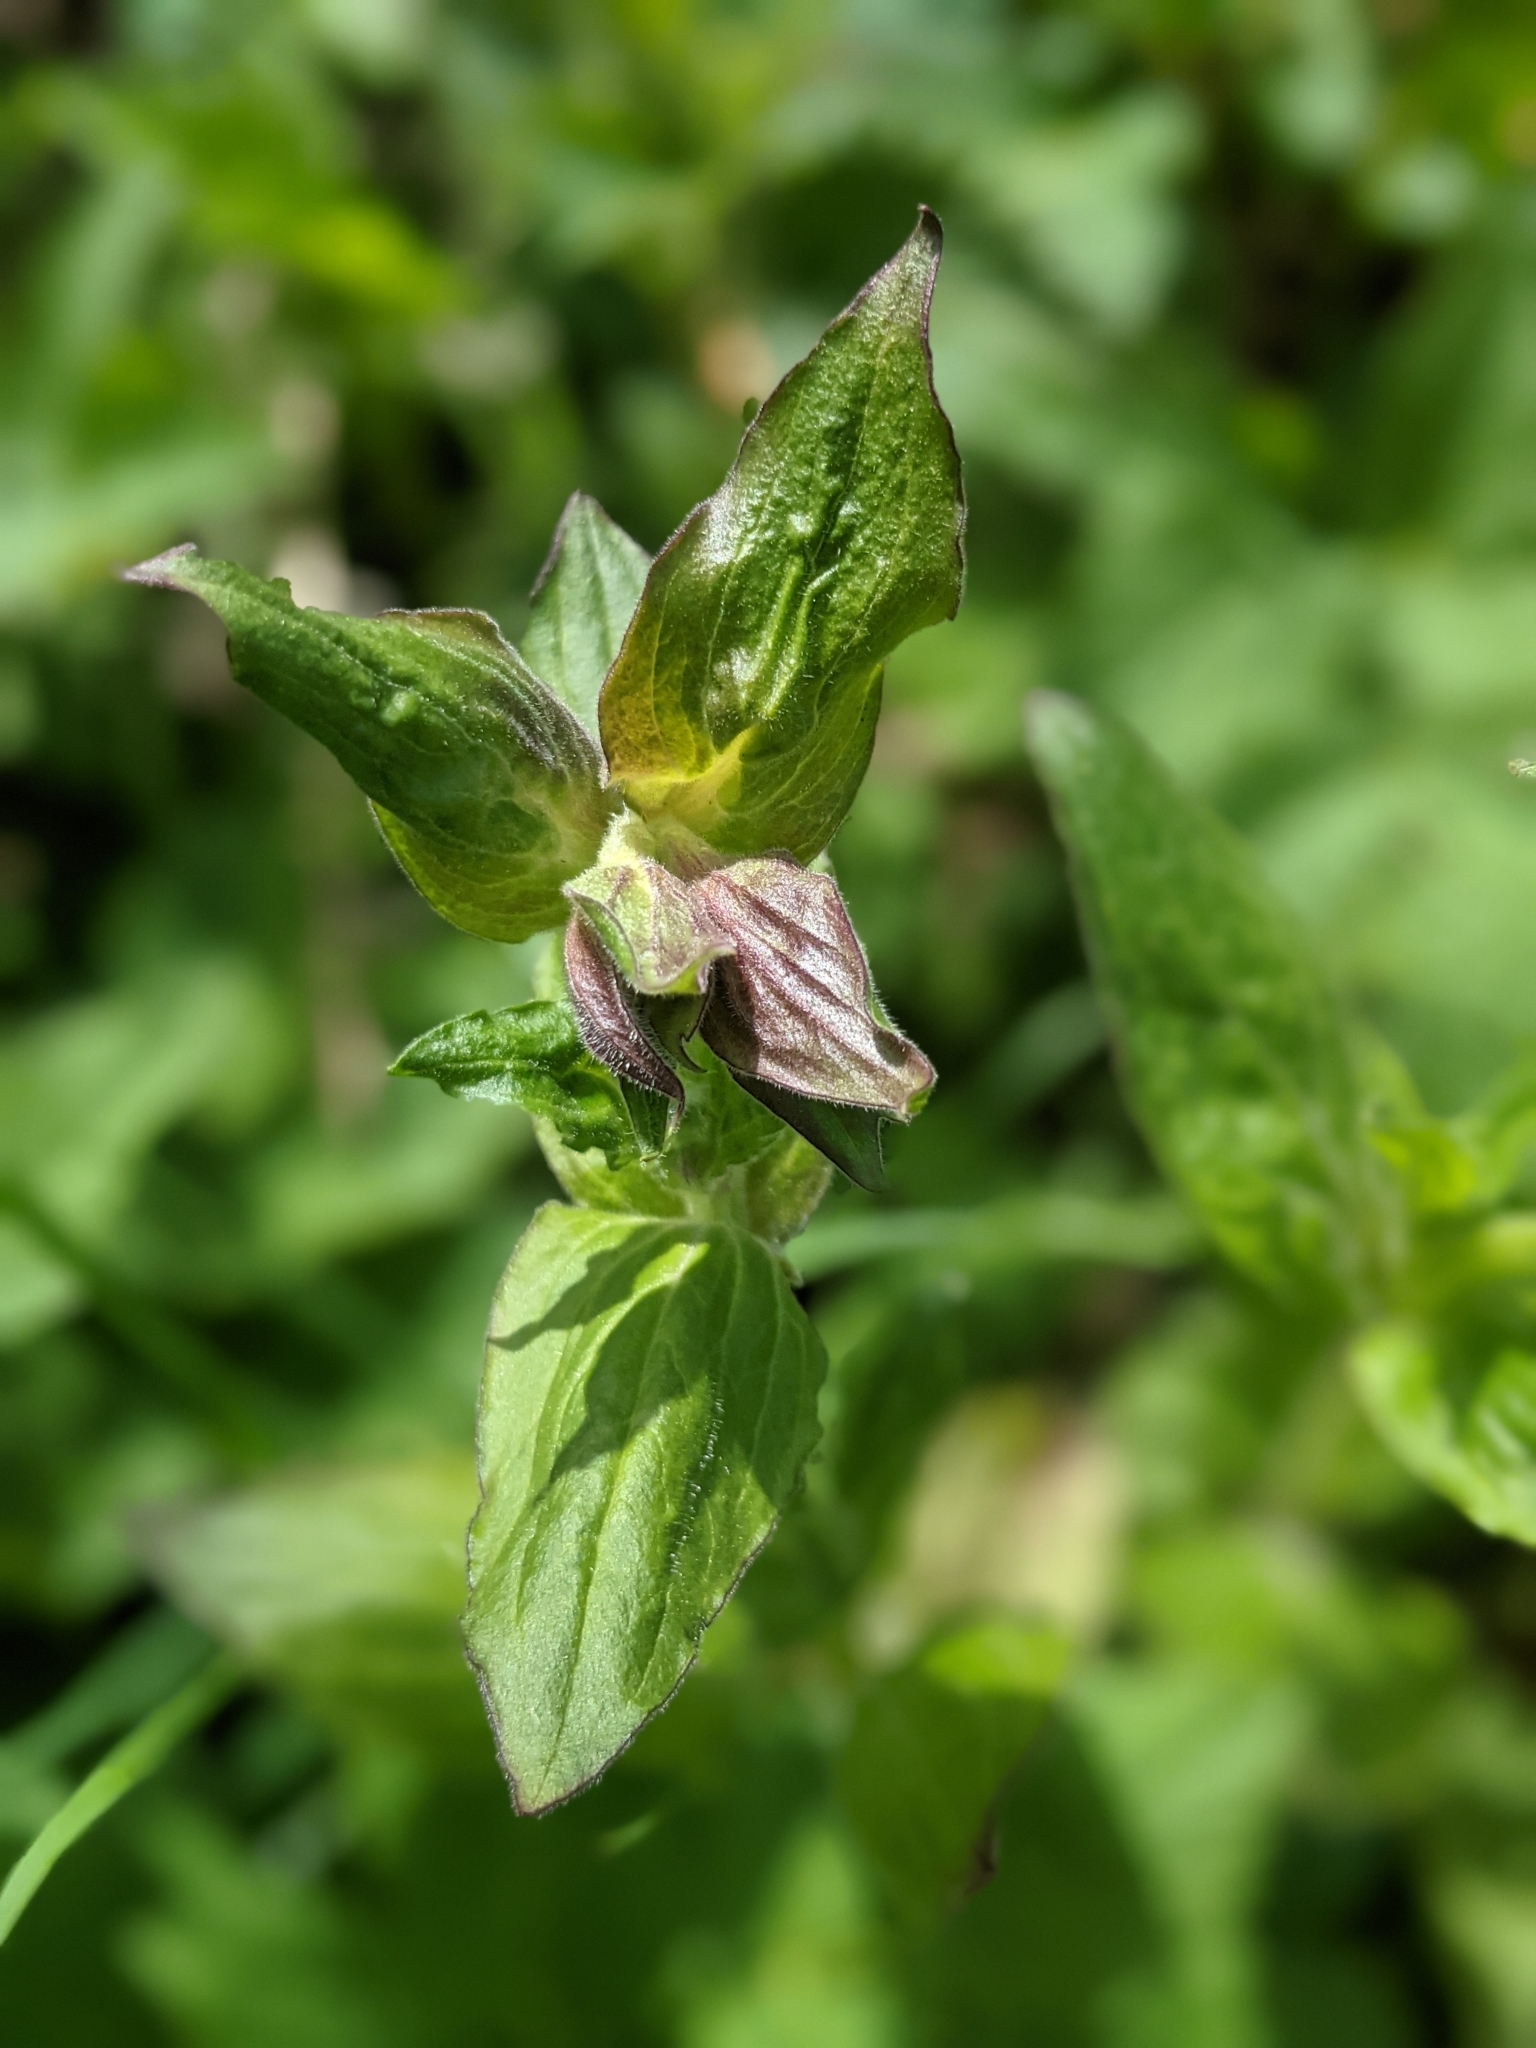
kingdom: Plantae
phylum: Tracheophyta
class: Magnoliopsida
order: Caryophyllales
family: Caryophyllaceae
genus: Silene
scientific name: Silene dioica
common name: Red campion
